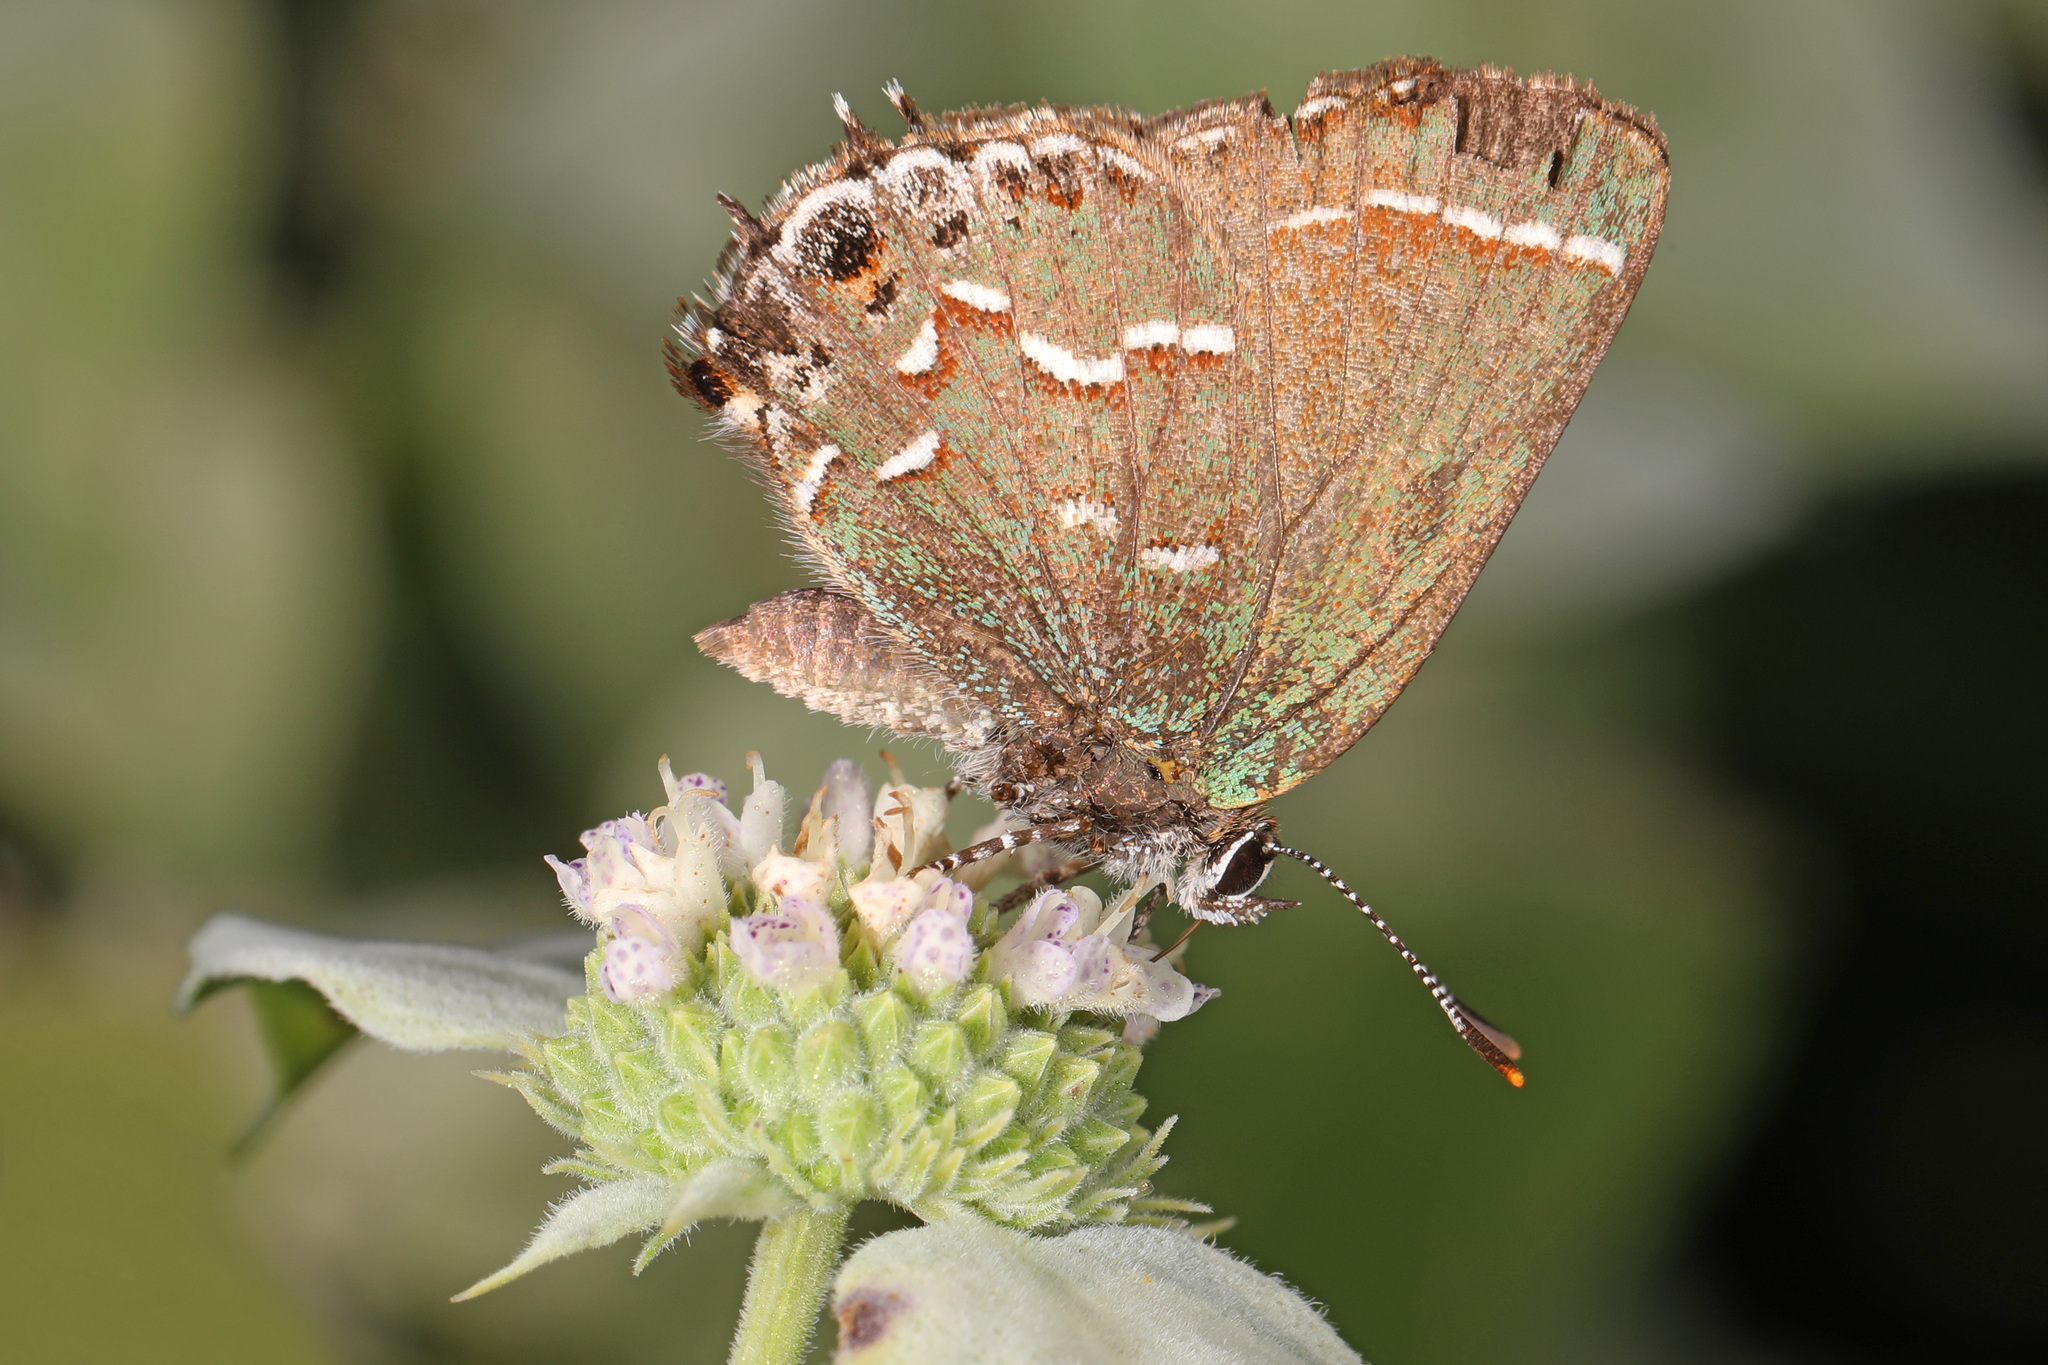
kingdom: Animalia
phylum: Arthropoda
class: Insecta
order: Lepidoptera
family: Lycaenidae
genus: Mitoura
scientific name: Mitoura gryneus
